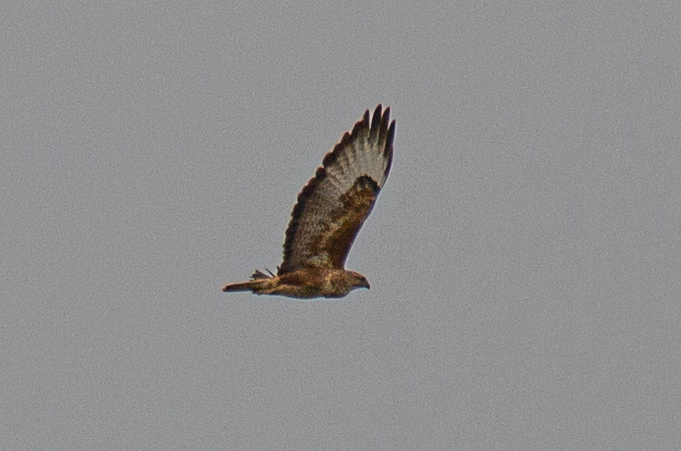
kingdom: Animalia
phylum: Chordata
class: Aves
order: Accipitriformes
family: Accipitridae
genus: Buteo
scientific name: Buteo rufinus
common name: Long-legged buzzard
